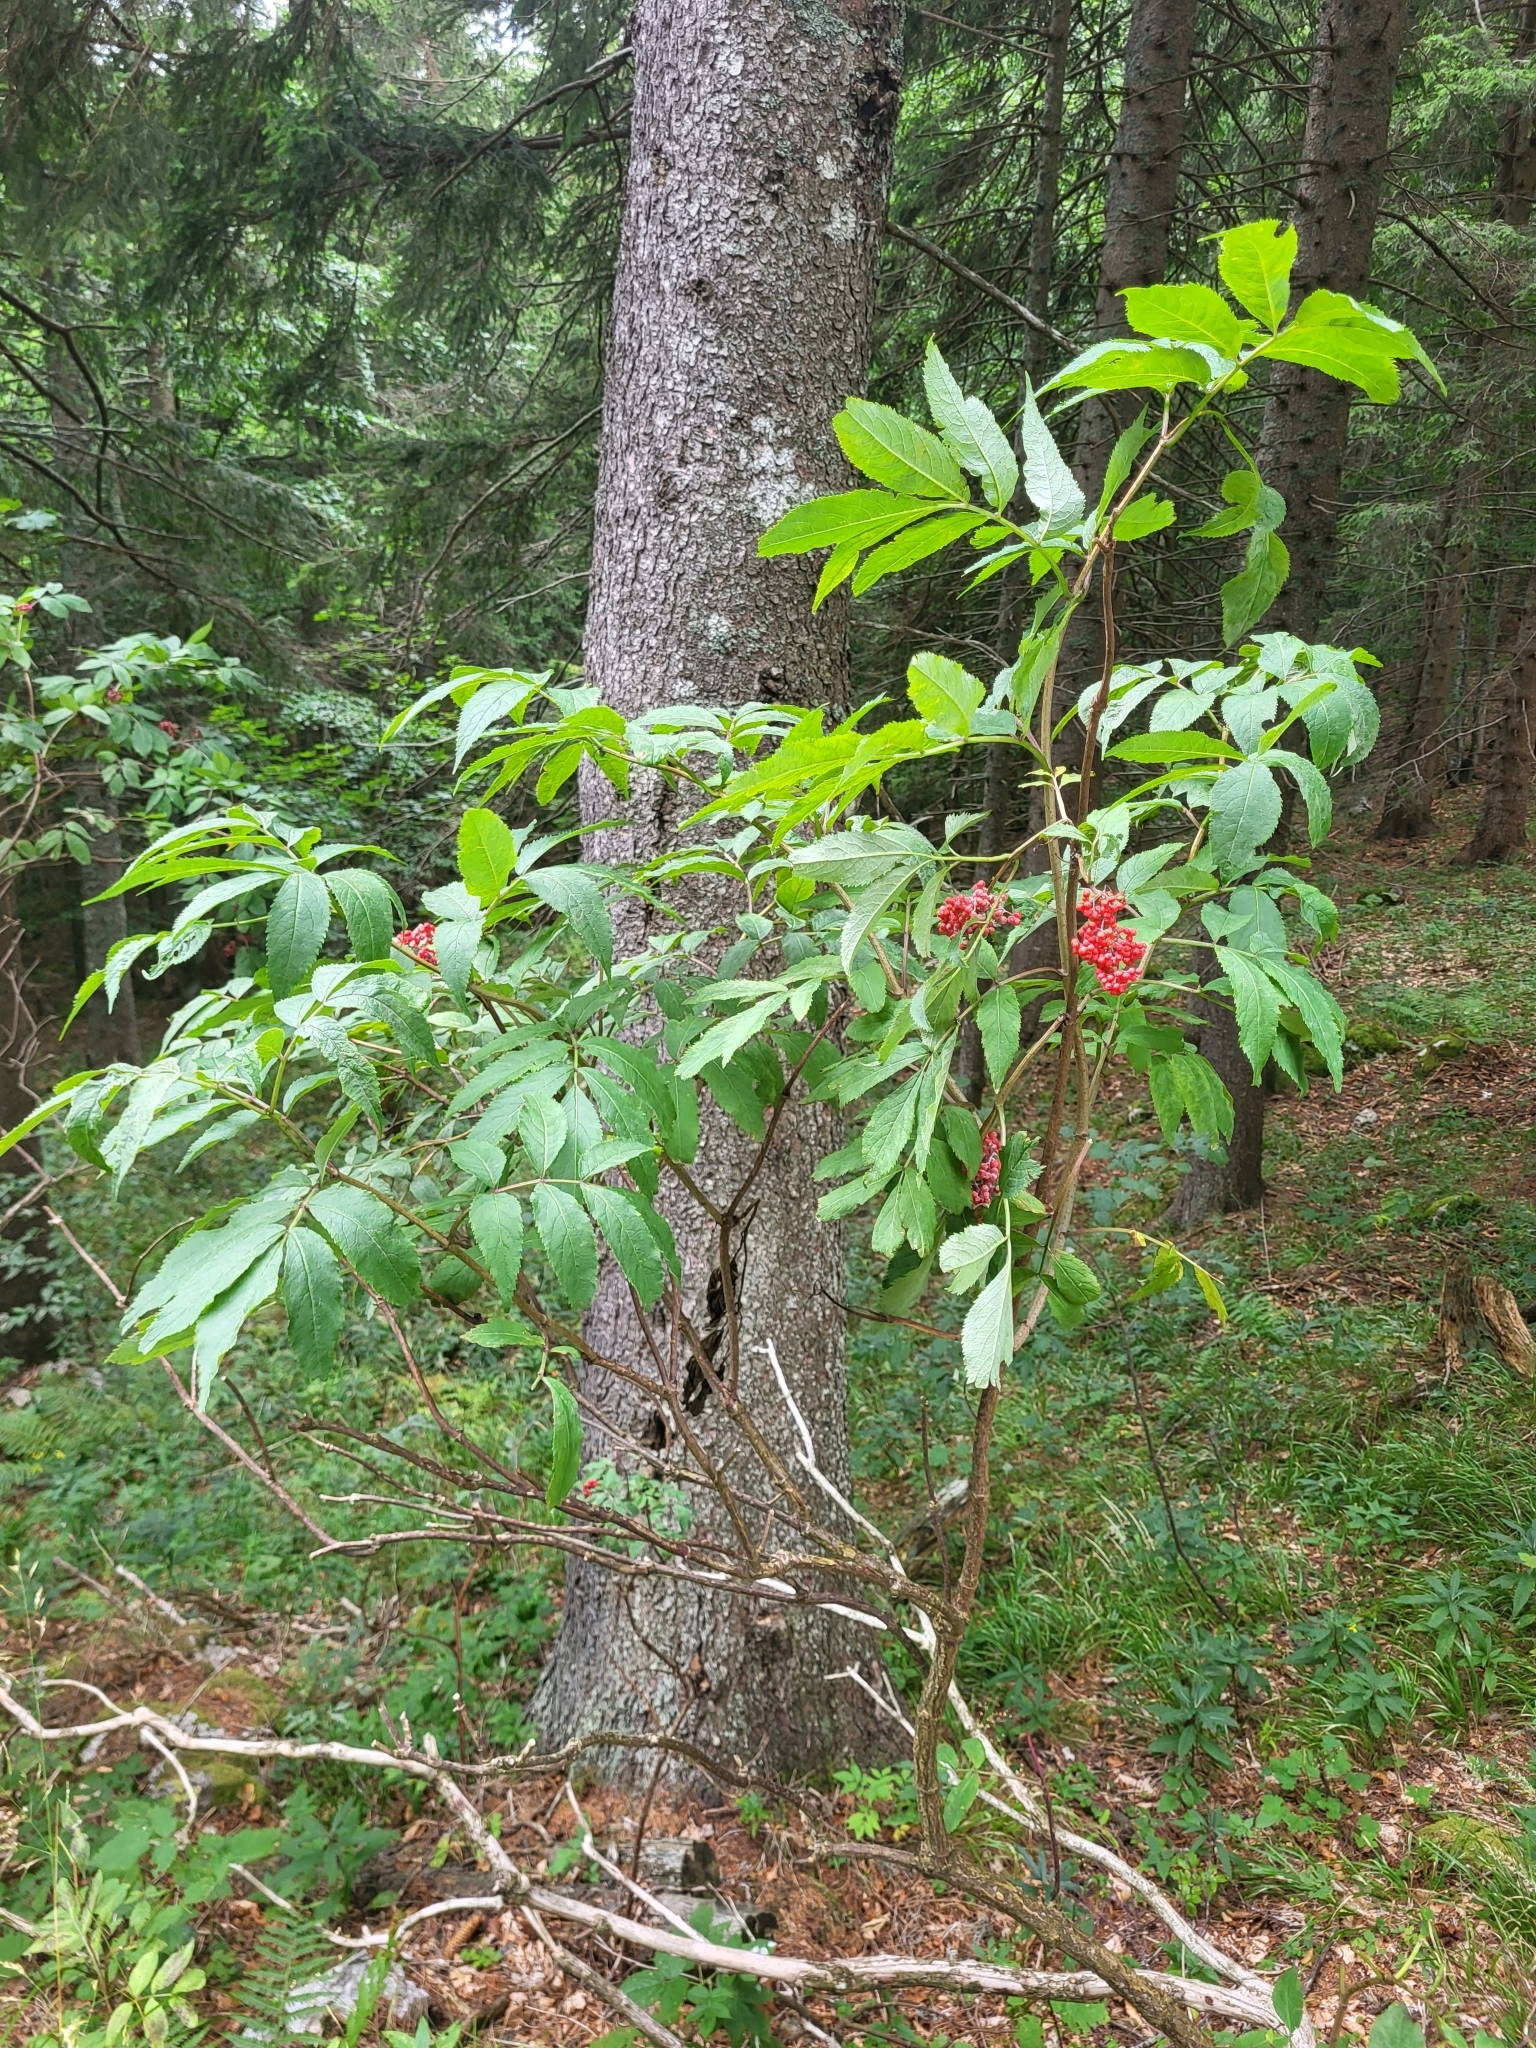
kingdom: Plantae
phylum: Tracheophyta
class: Magnoliopsida
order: Dipsacales
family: Viburnaceae
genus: Sambucus
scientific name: Sambucus racemosa
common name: Red-berried elder
